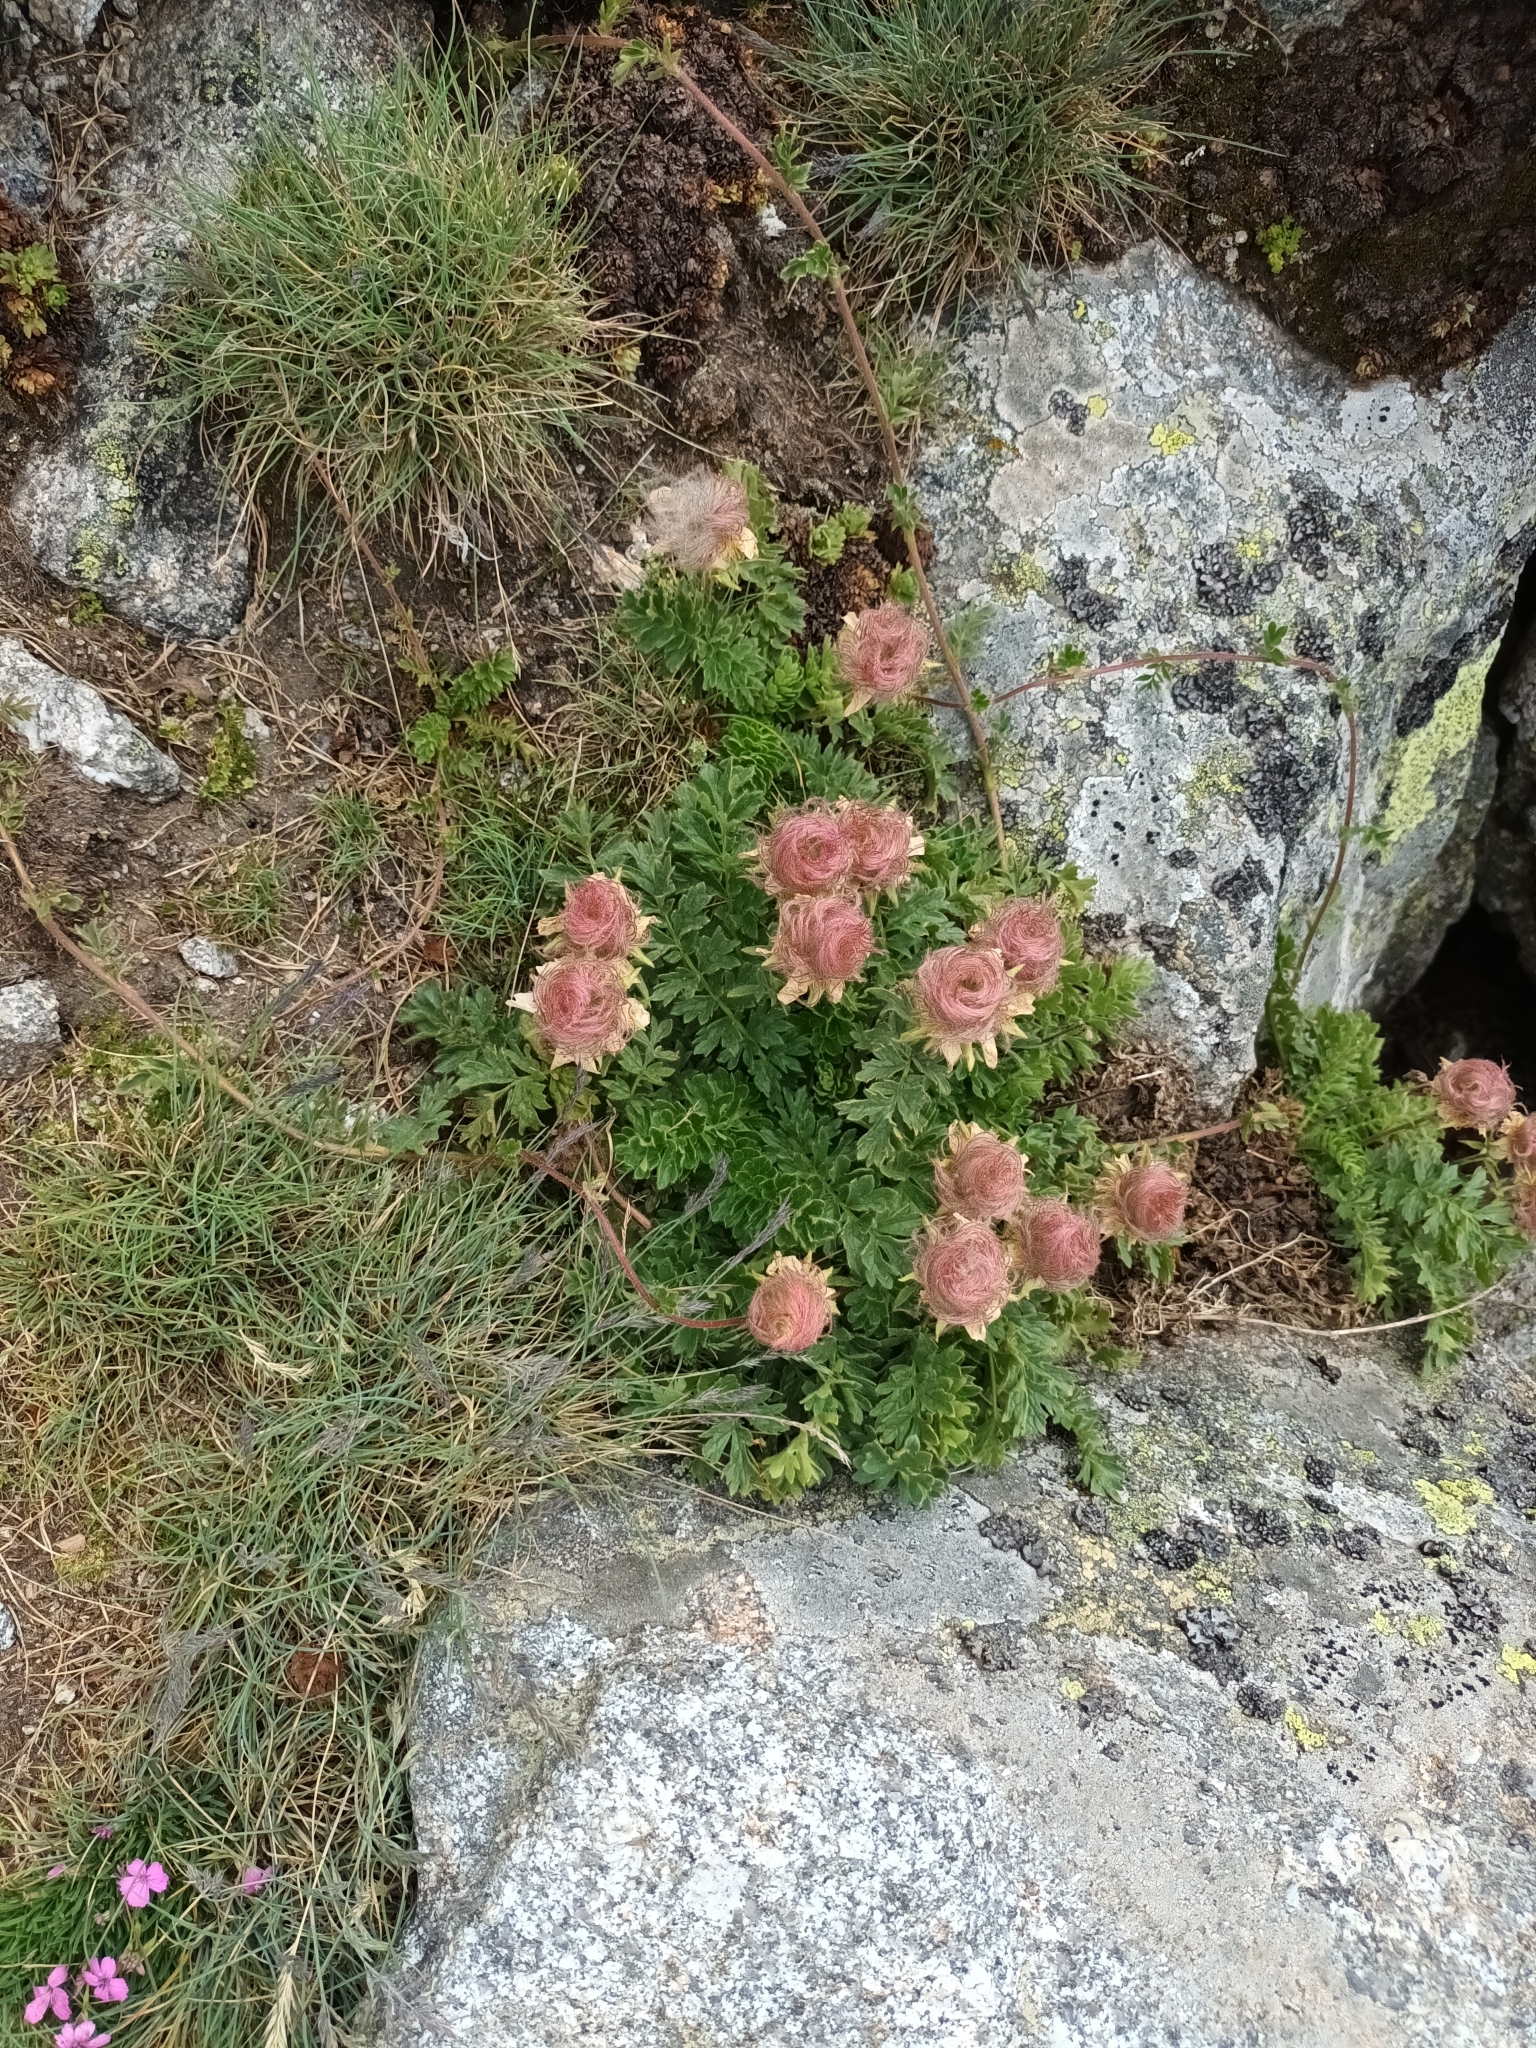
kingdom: Plantae
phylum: Tracheophyta
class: Magnoliopsida
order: Rosales
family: Rosaceae
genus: Geum
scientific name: Geum reptans
